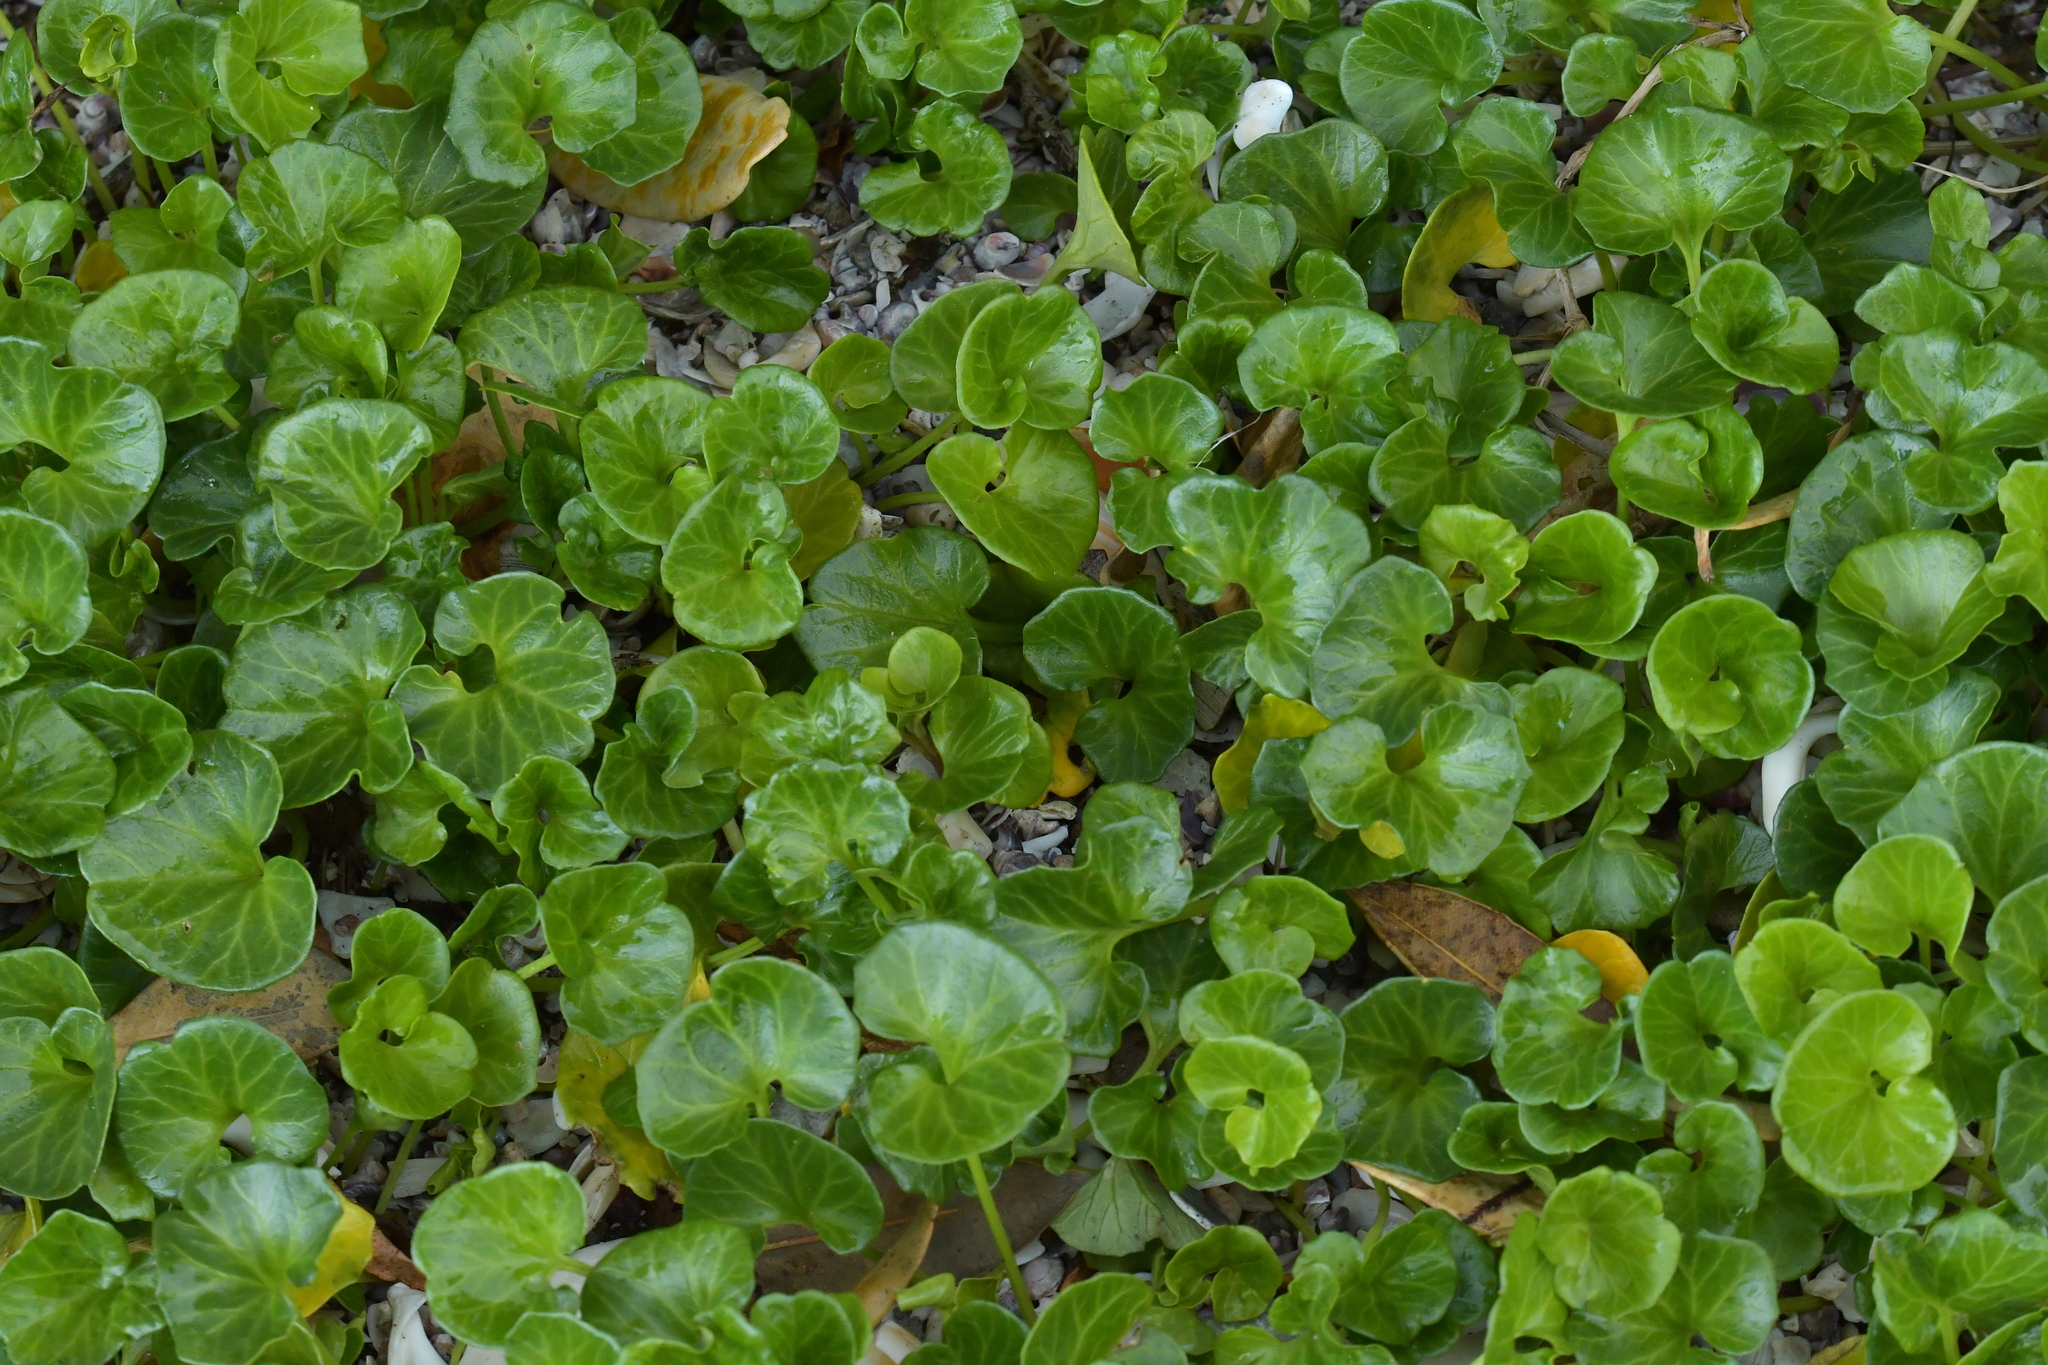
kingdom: Plantae
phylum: Tracheophyta
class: Magnoliopsida
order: Solanales
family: Convolvulaceae
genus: Calystegia
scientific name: Calystegia soldanella
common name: Sea bindweed
